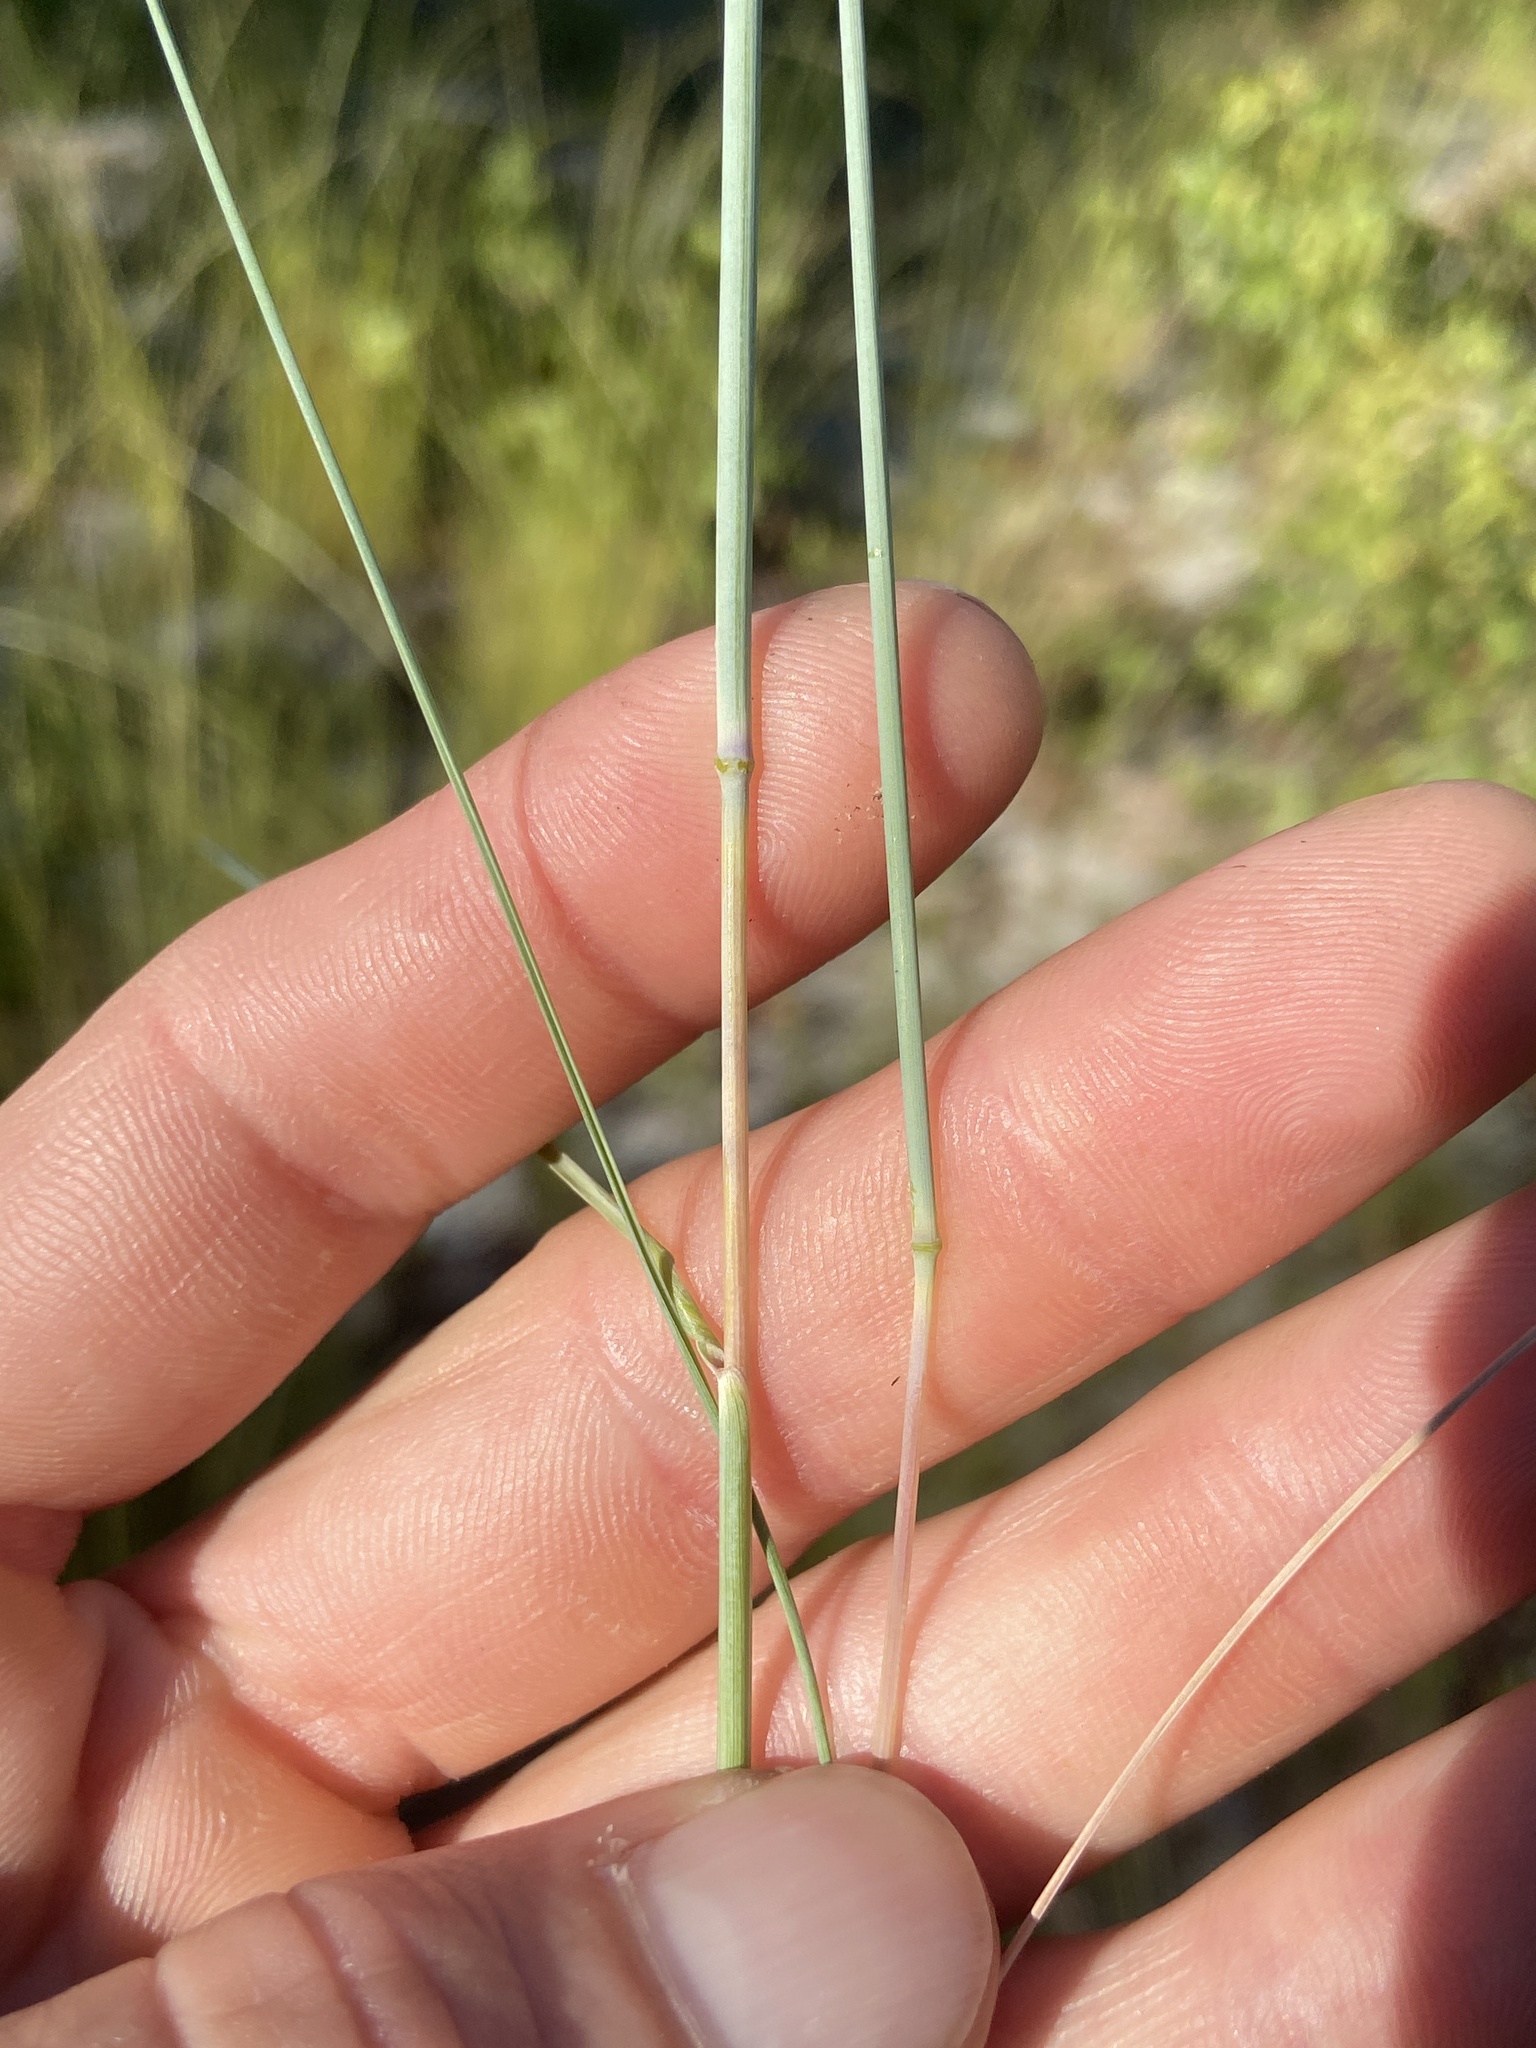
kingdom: Plantae
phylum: Tracheophyta
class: Liliopsida
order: Poales
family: Poaceae
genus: Sporobolus
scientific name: Sporobolus junceus
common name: Lizard grass
